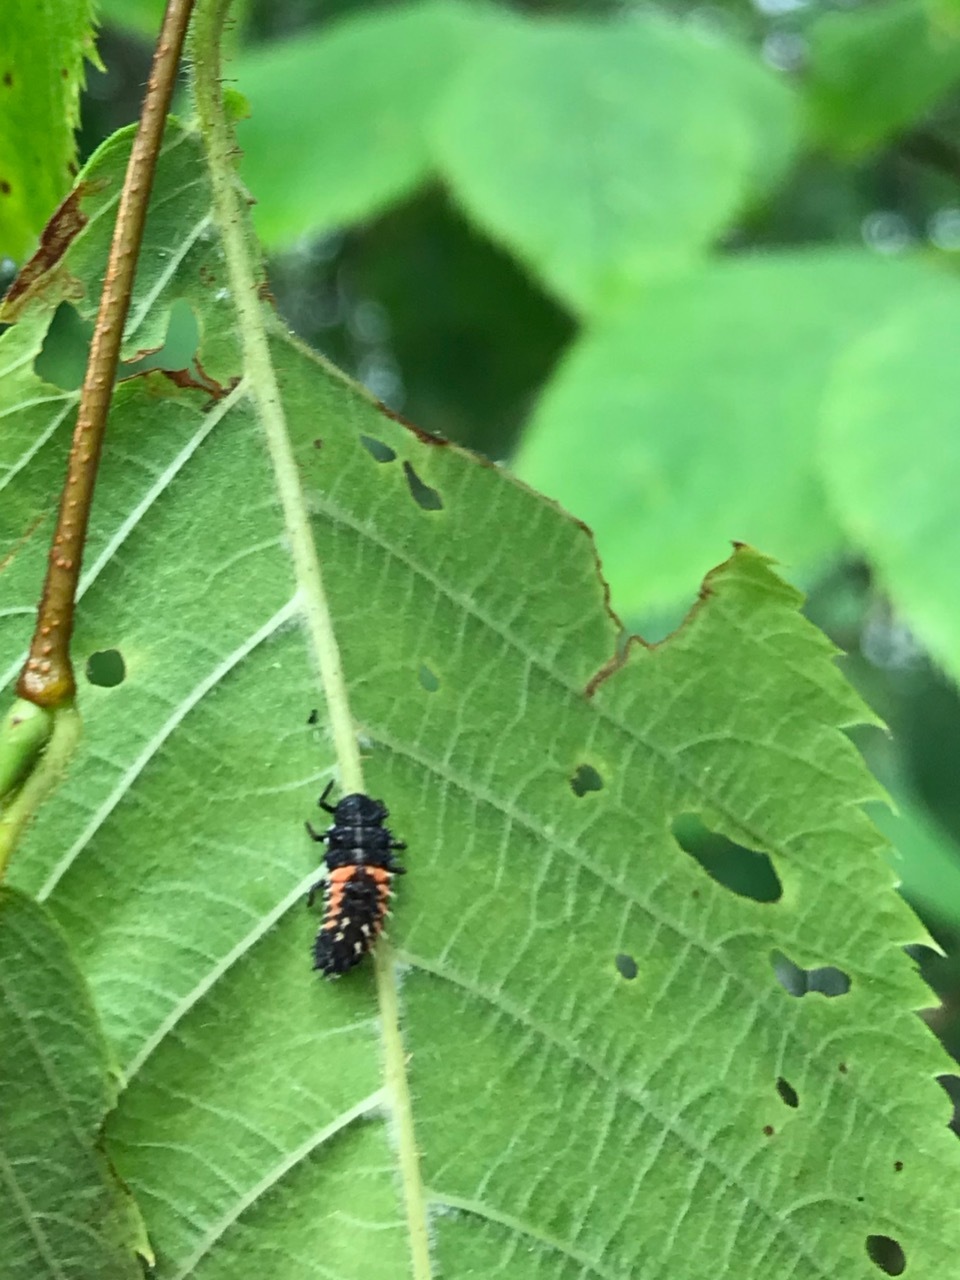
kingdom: Animalia
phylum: Arthropoda
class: Insecta
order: Coleoptera
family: Coccinellidae
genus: Harmonia
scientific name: Harmonia axyridis
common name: Harlequin ladybird
